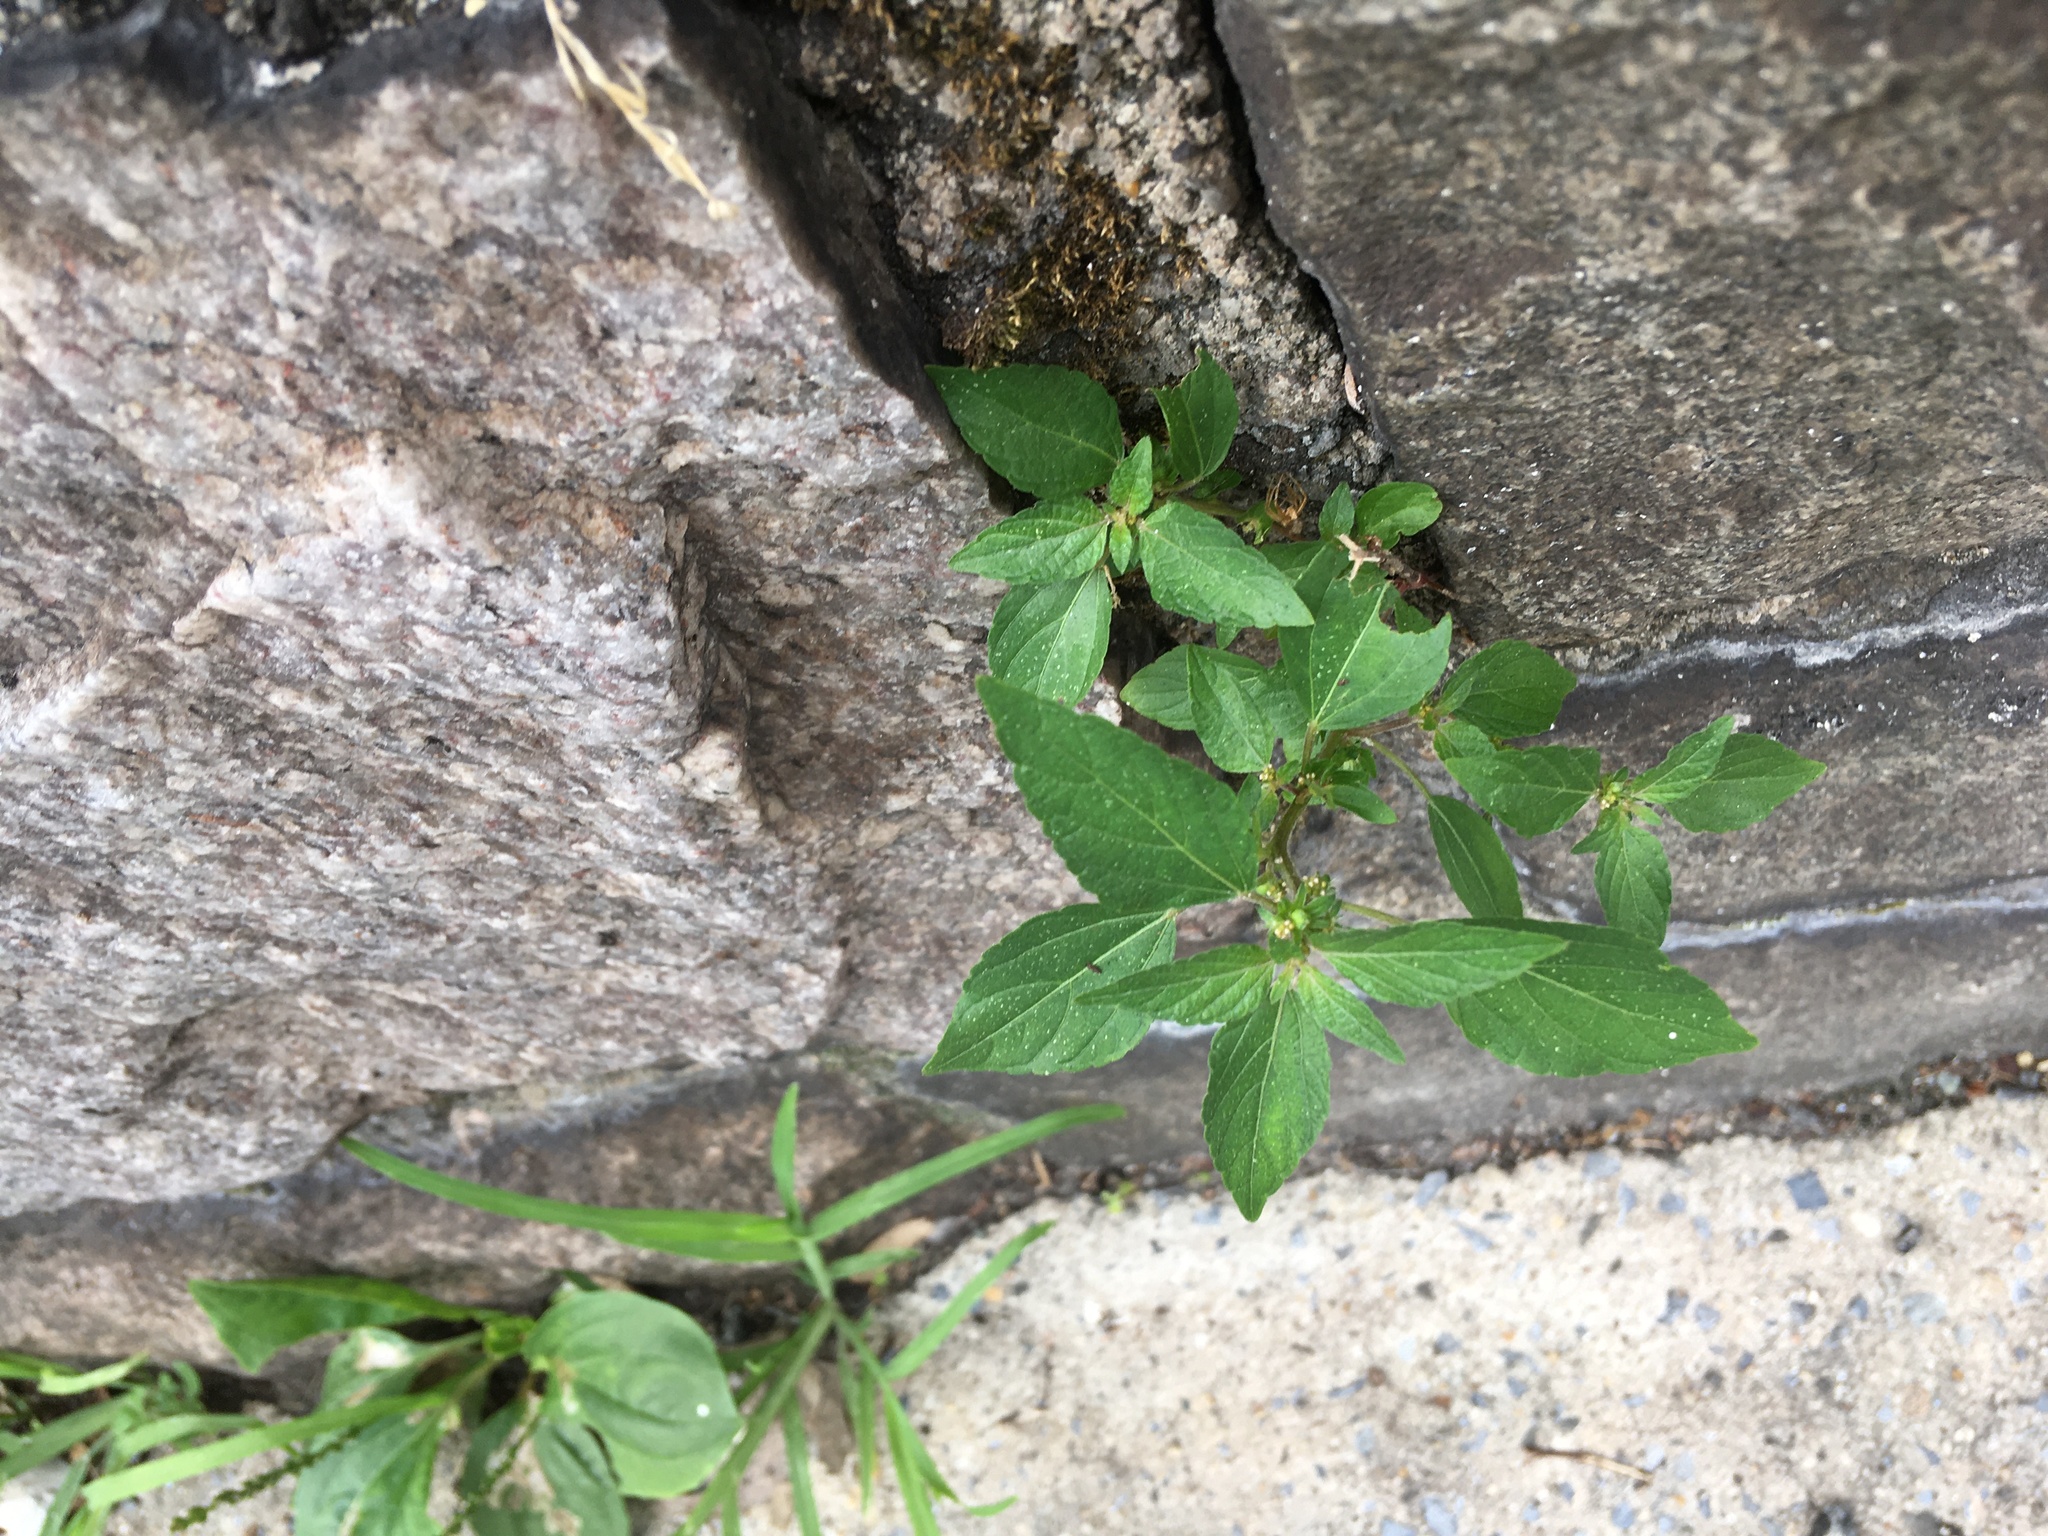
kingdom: Plantae
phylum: Tracheophyta
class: Magnoliopsida
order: Malpighiales
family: Euphorbiaceae
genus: Acalypha
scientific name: Acalypha rhomboidea
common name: Rhombic copperleaf
